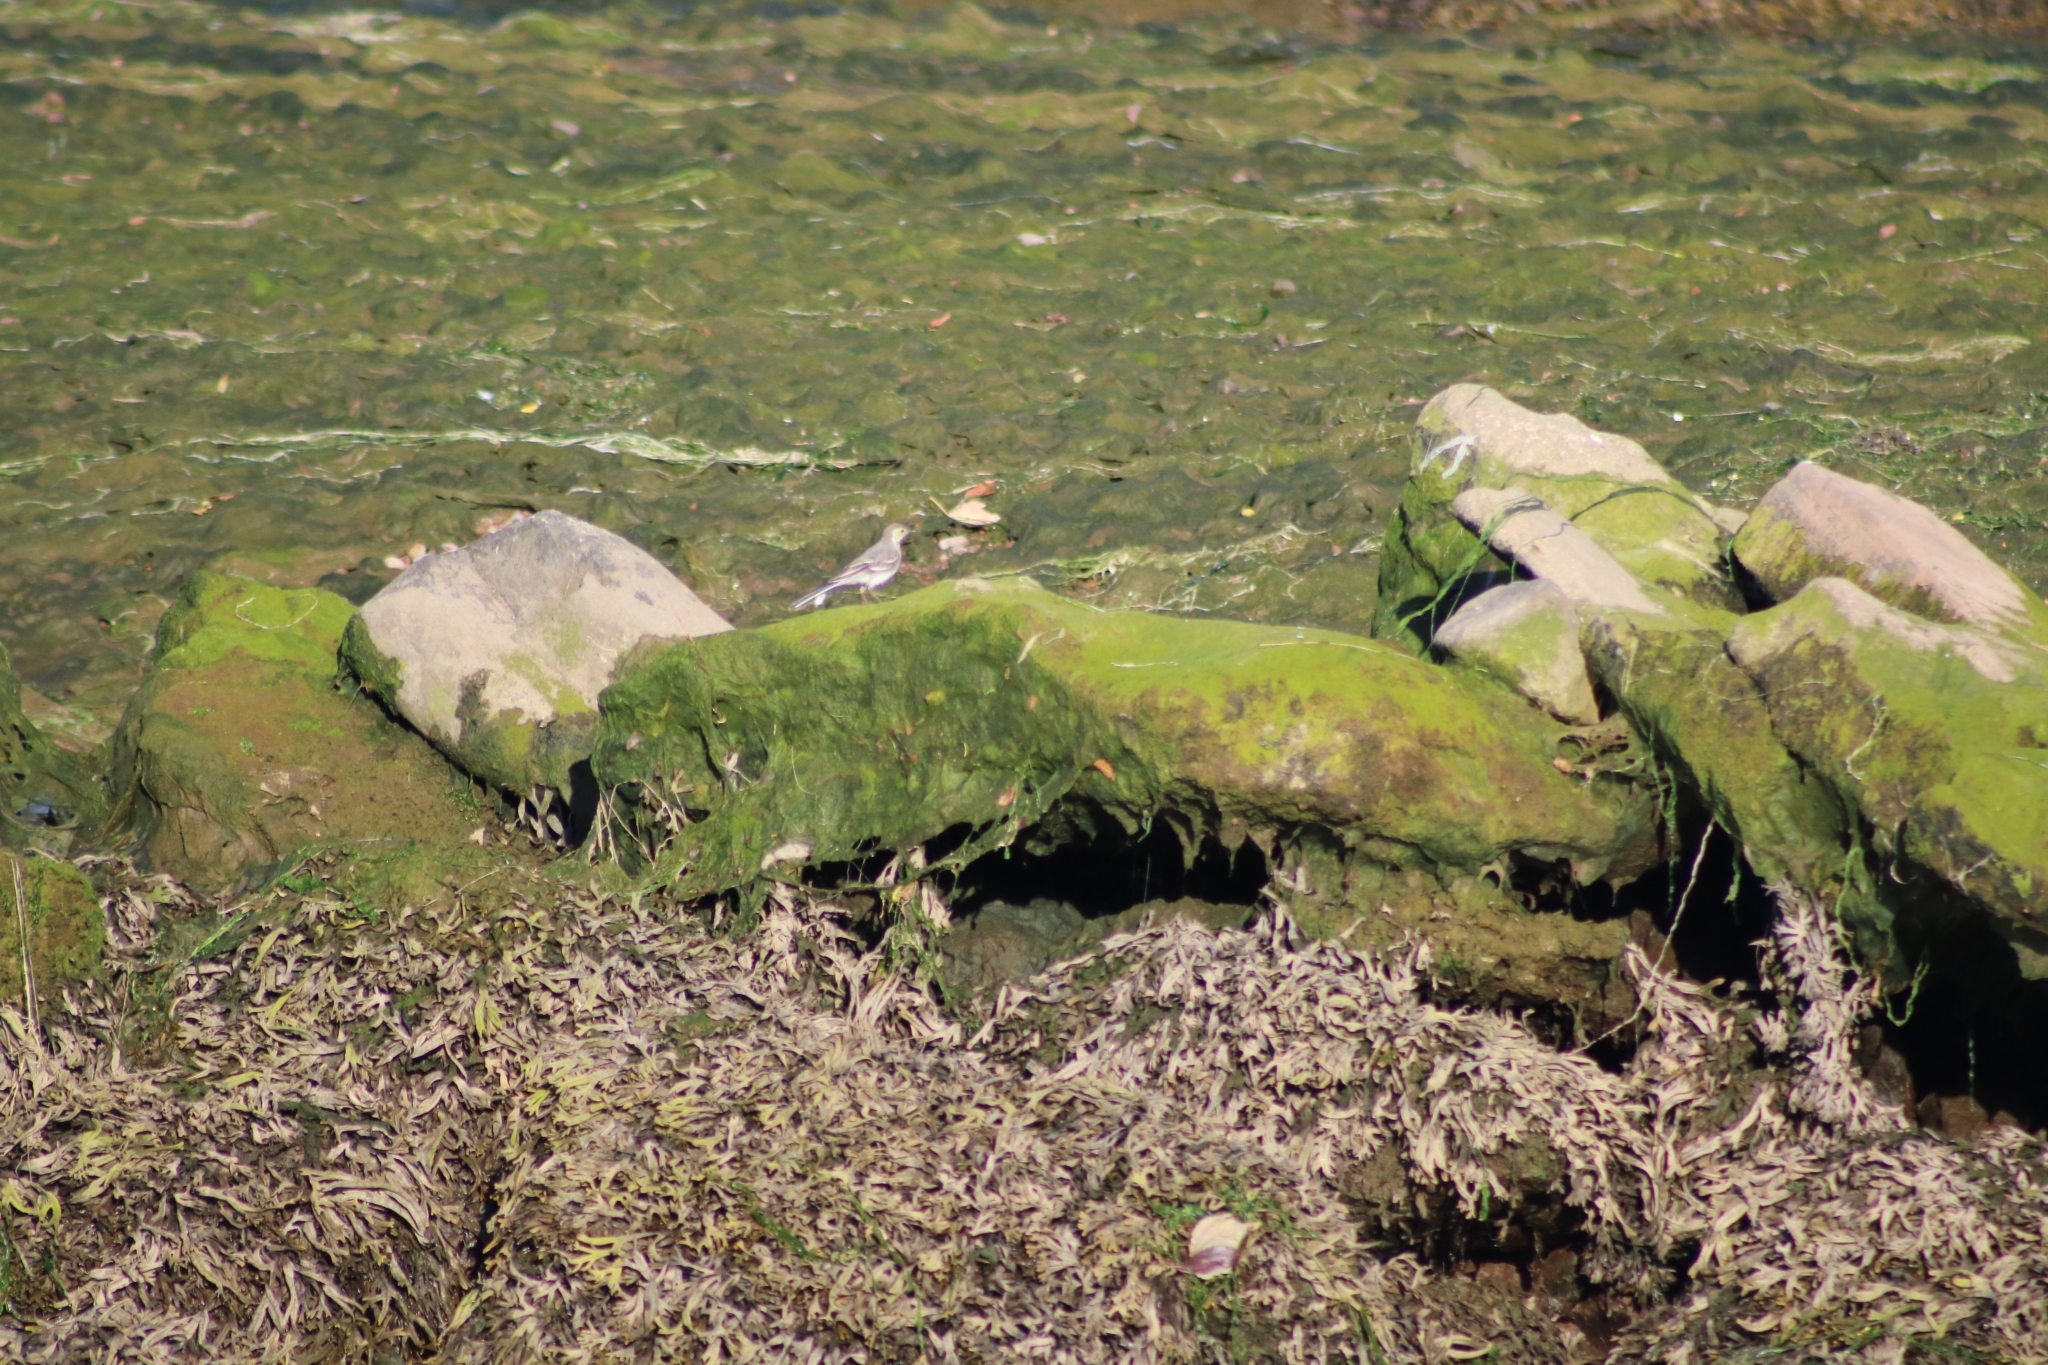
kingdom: Animalia
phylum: Chordata
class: Aves
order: Passeriformes
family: Motacillidae
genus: Motacilla
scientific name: Motacilla alba
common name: White wagtail
